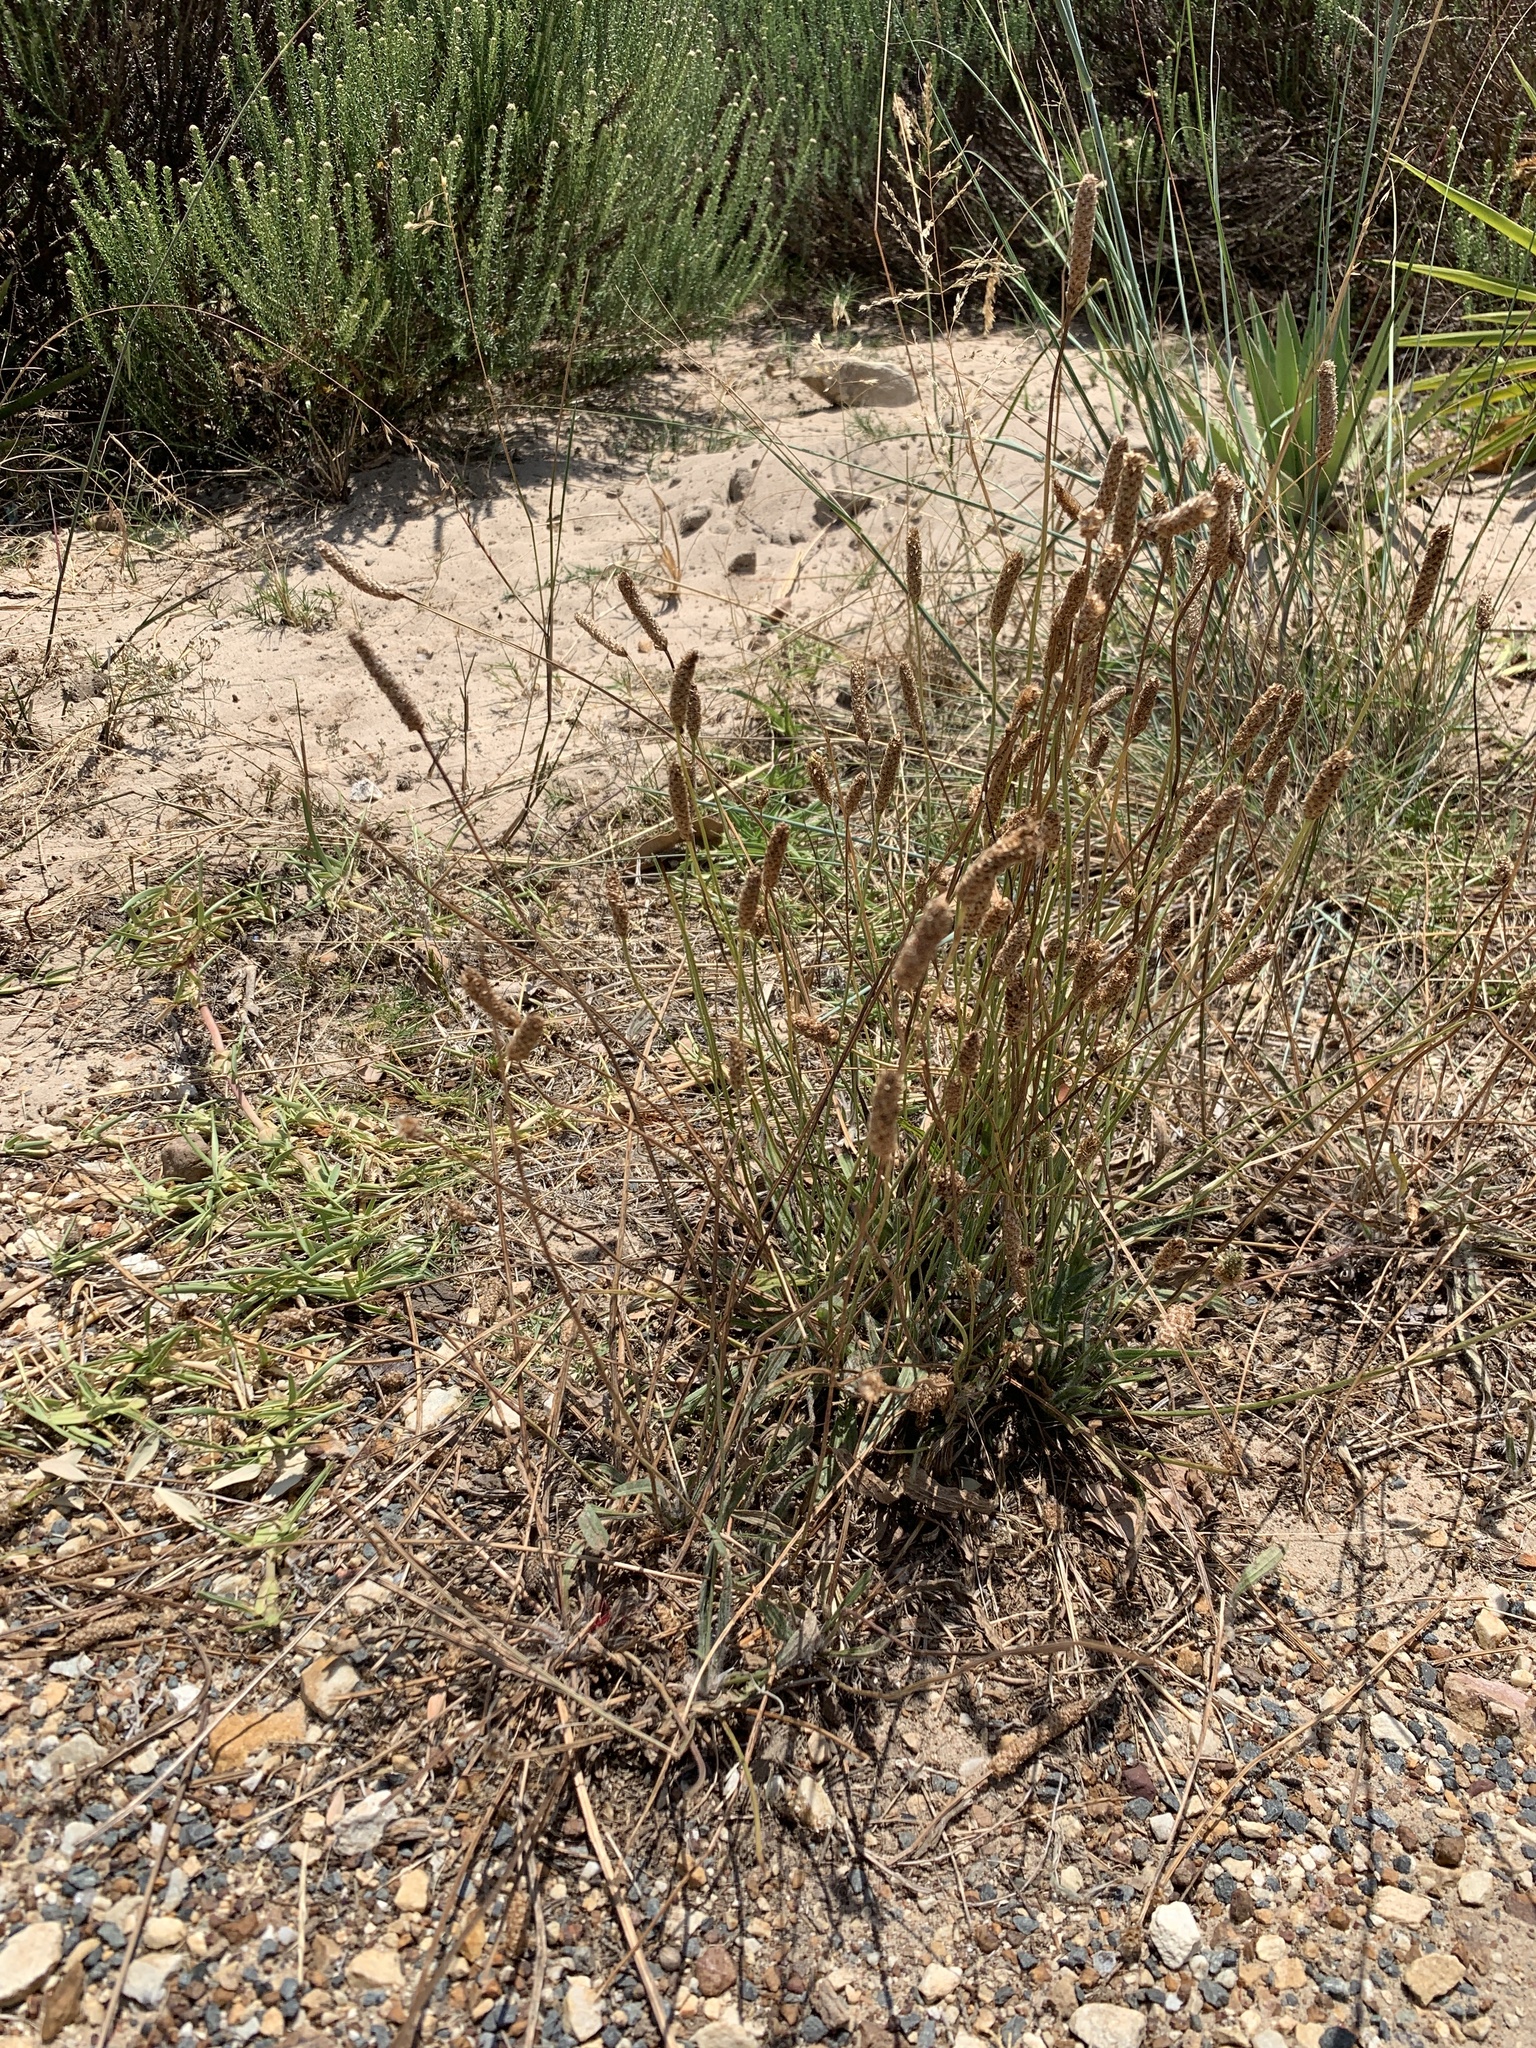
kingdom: Plantae
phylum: Tracheophyta
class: Magnoliopsida
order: Lamiales
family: Plantaginaceae
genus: Plantago
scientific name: Plantago lanceolata
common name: Ribwort plantain
